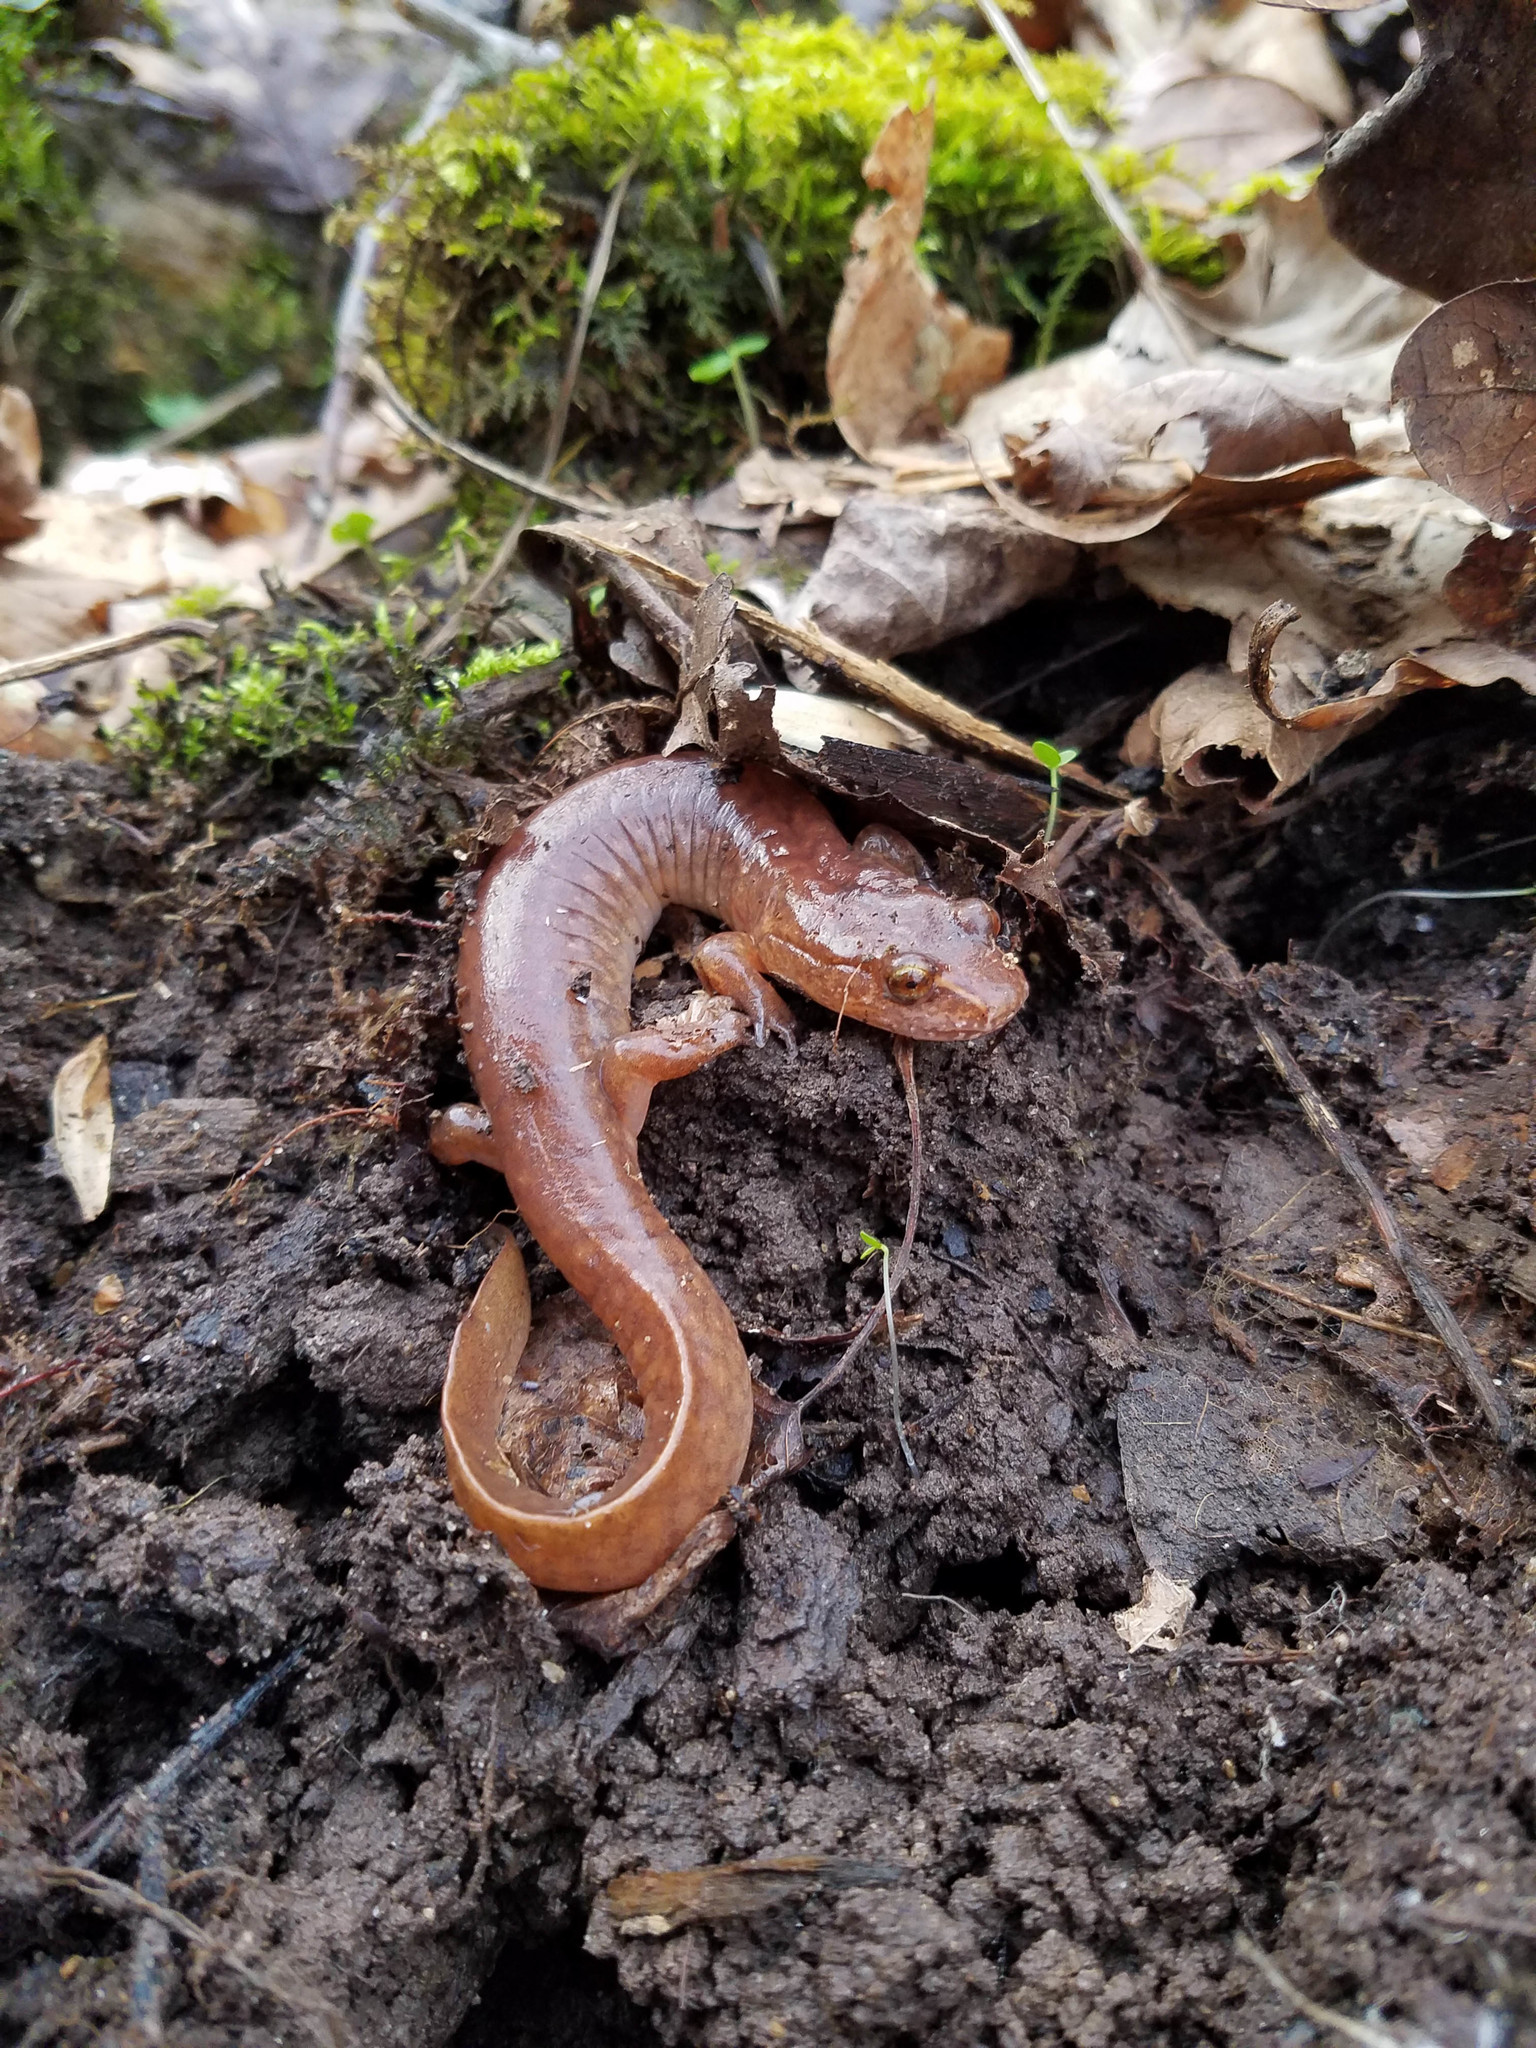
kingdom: Animalia
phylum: Chordata
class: Amphibia
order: Caudata
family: Plethodontidae
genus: Gyrinophilus
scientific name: Gyrinophilus porphyriticus
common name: Spring salamander
